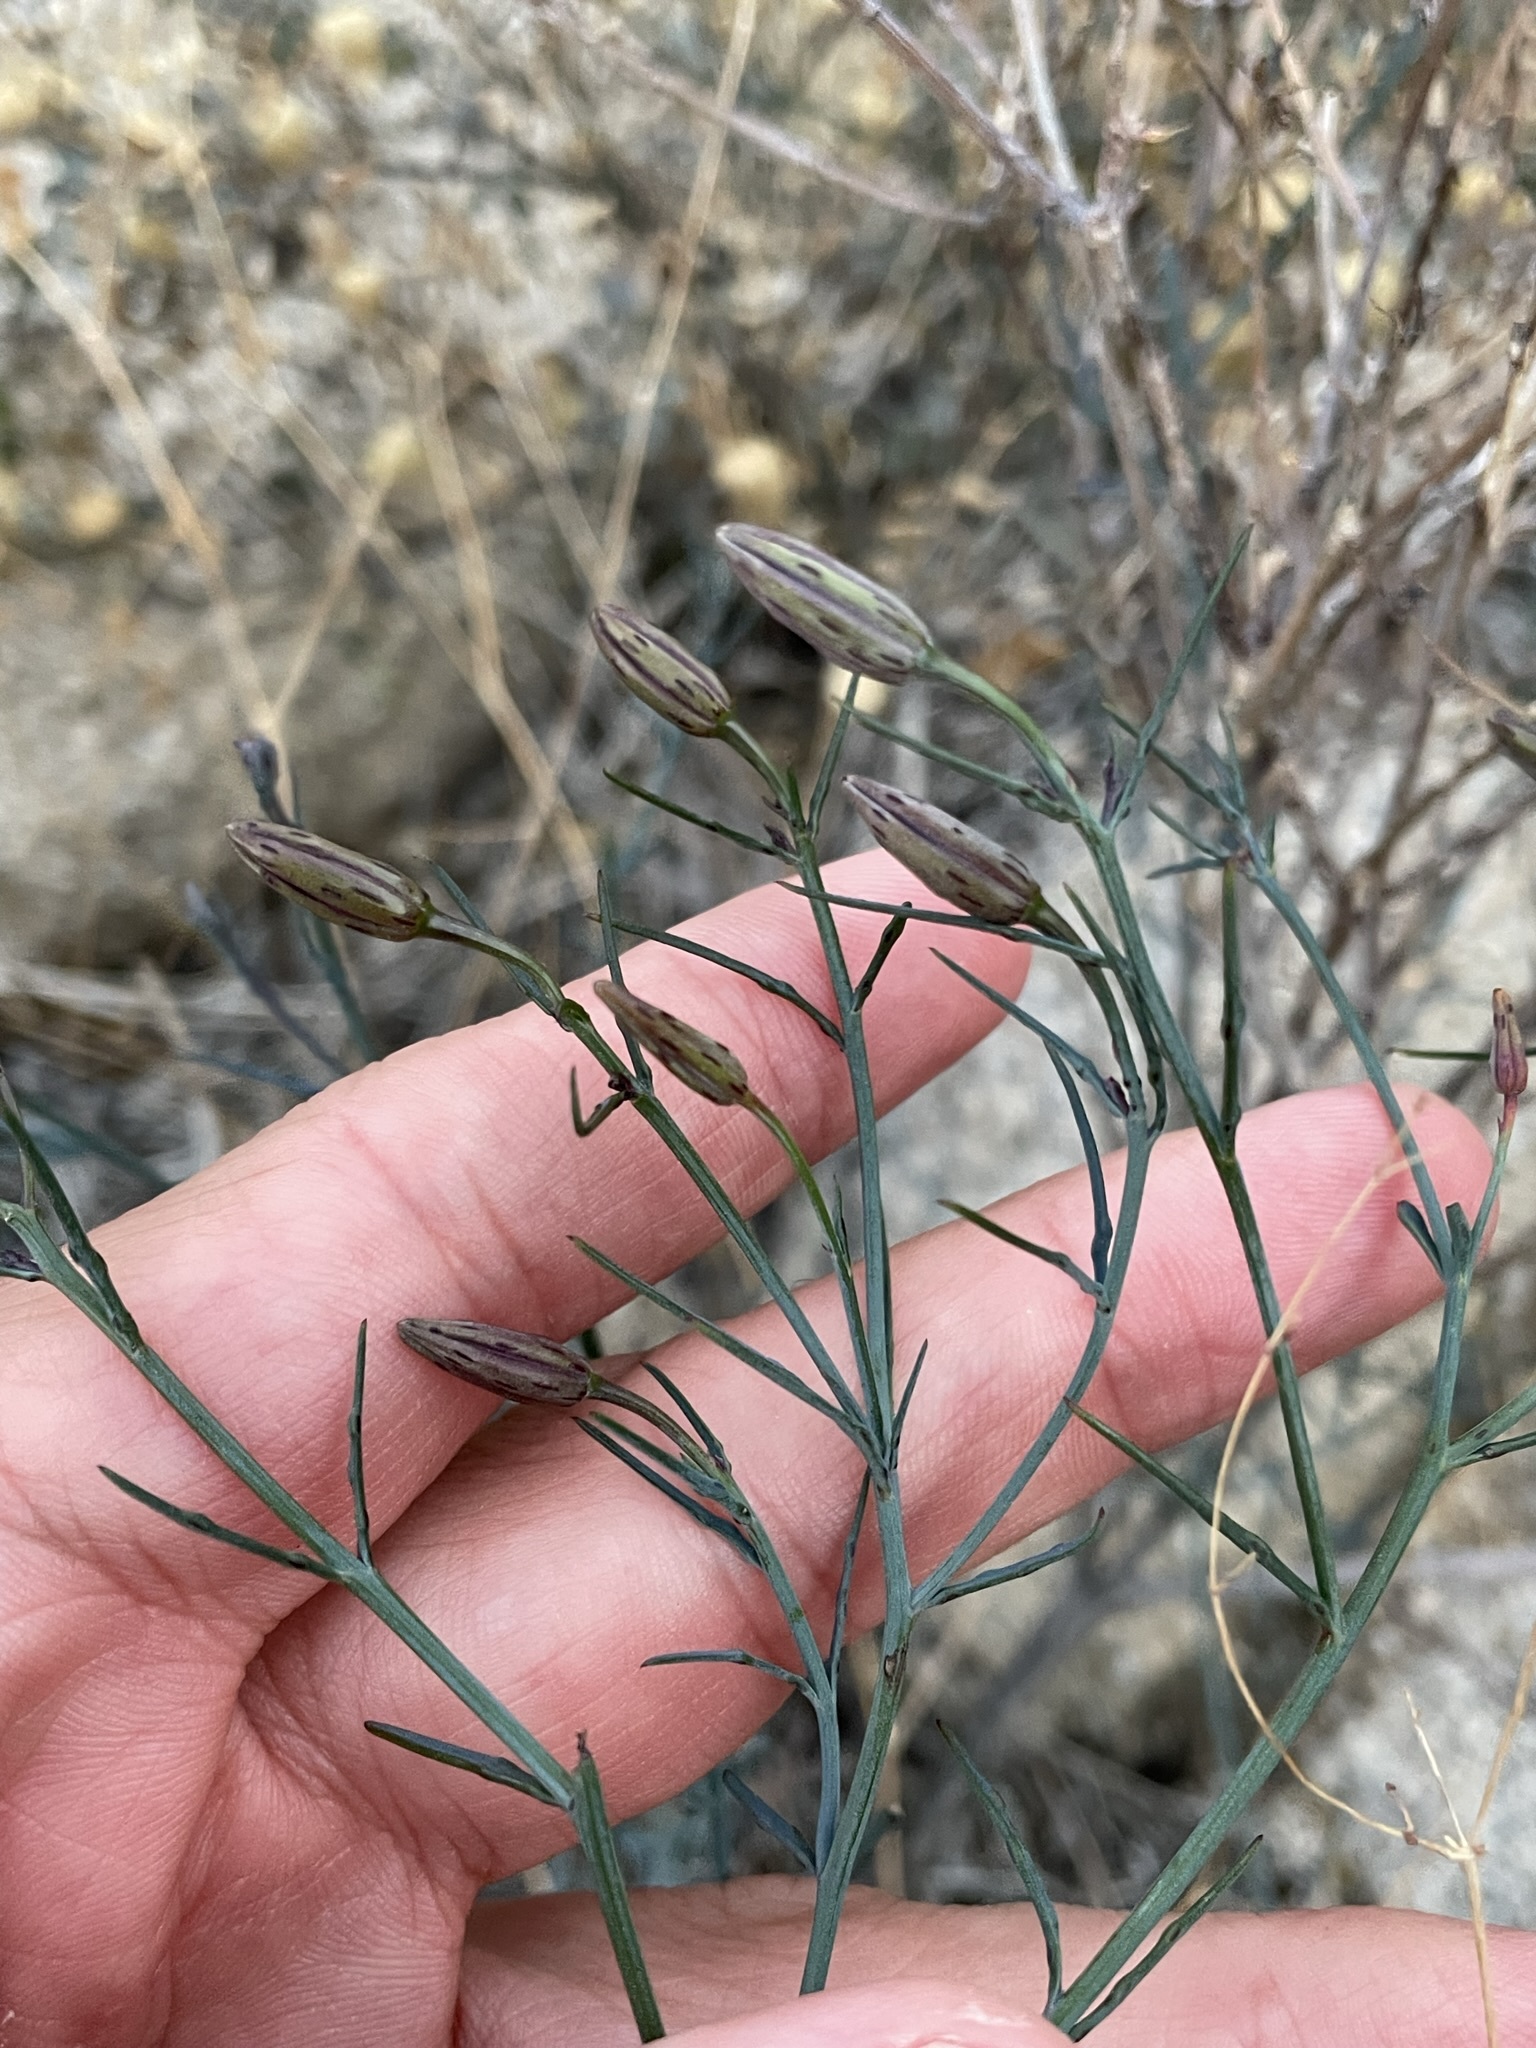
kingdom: Plantae
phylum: Tracheophyta
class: Magnoliopsida
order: Asterales
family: Asteraceae
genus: Porophyllum
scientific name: Porophyllum gracile
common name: Odora
